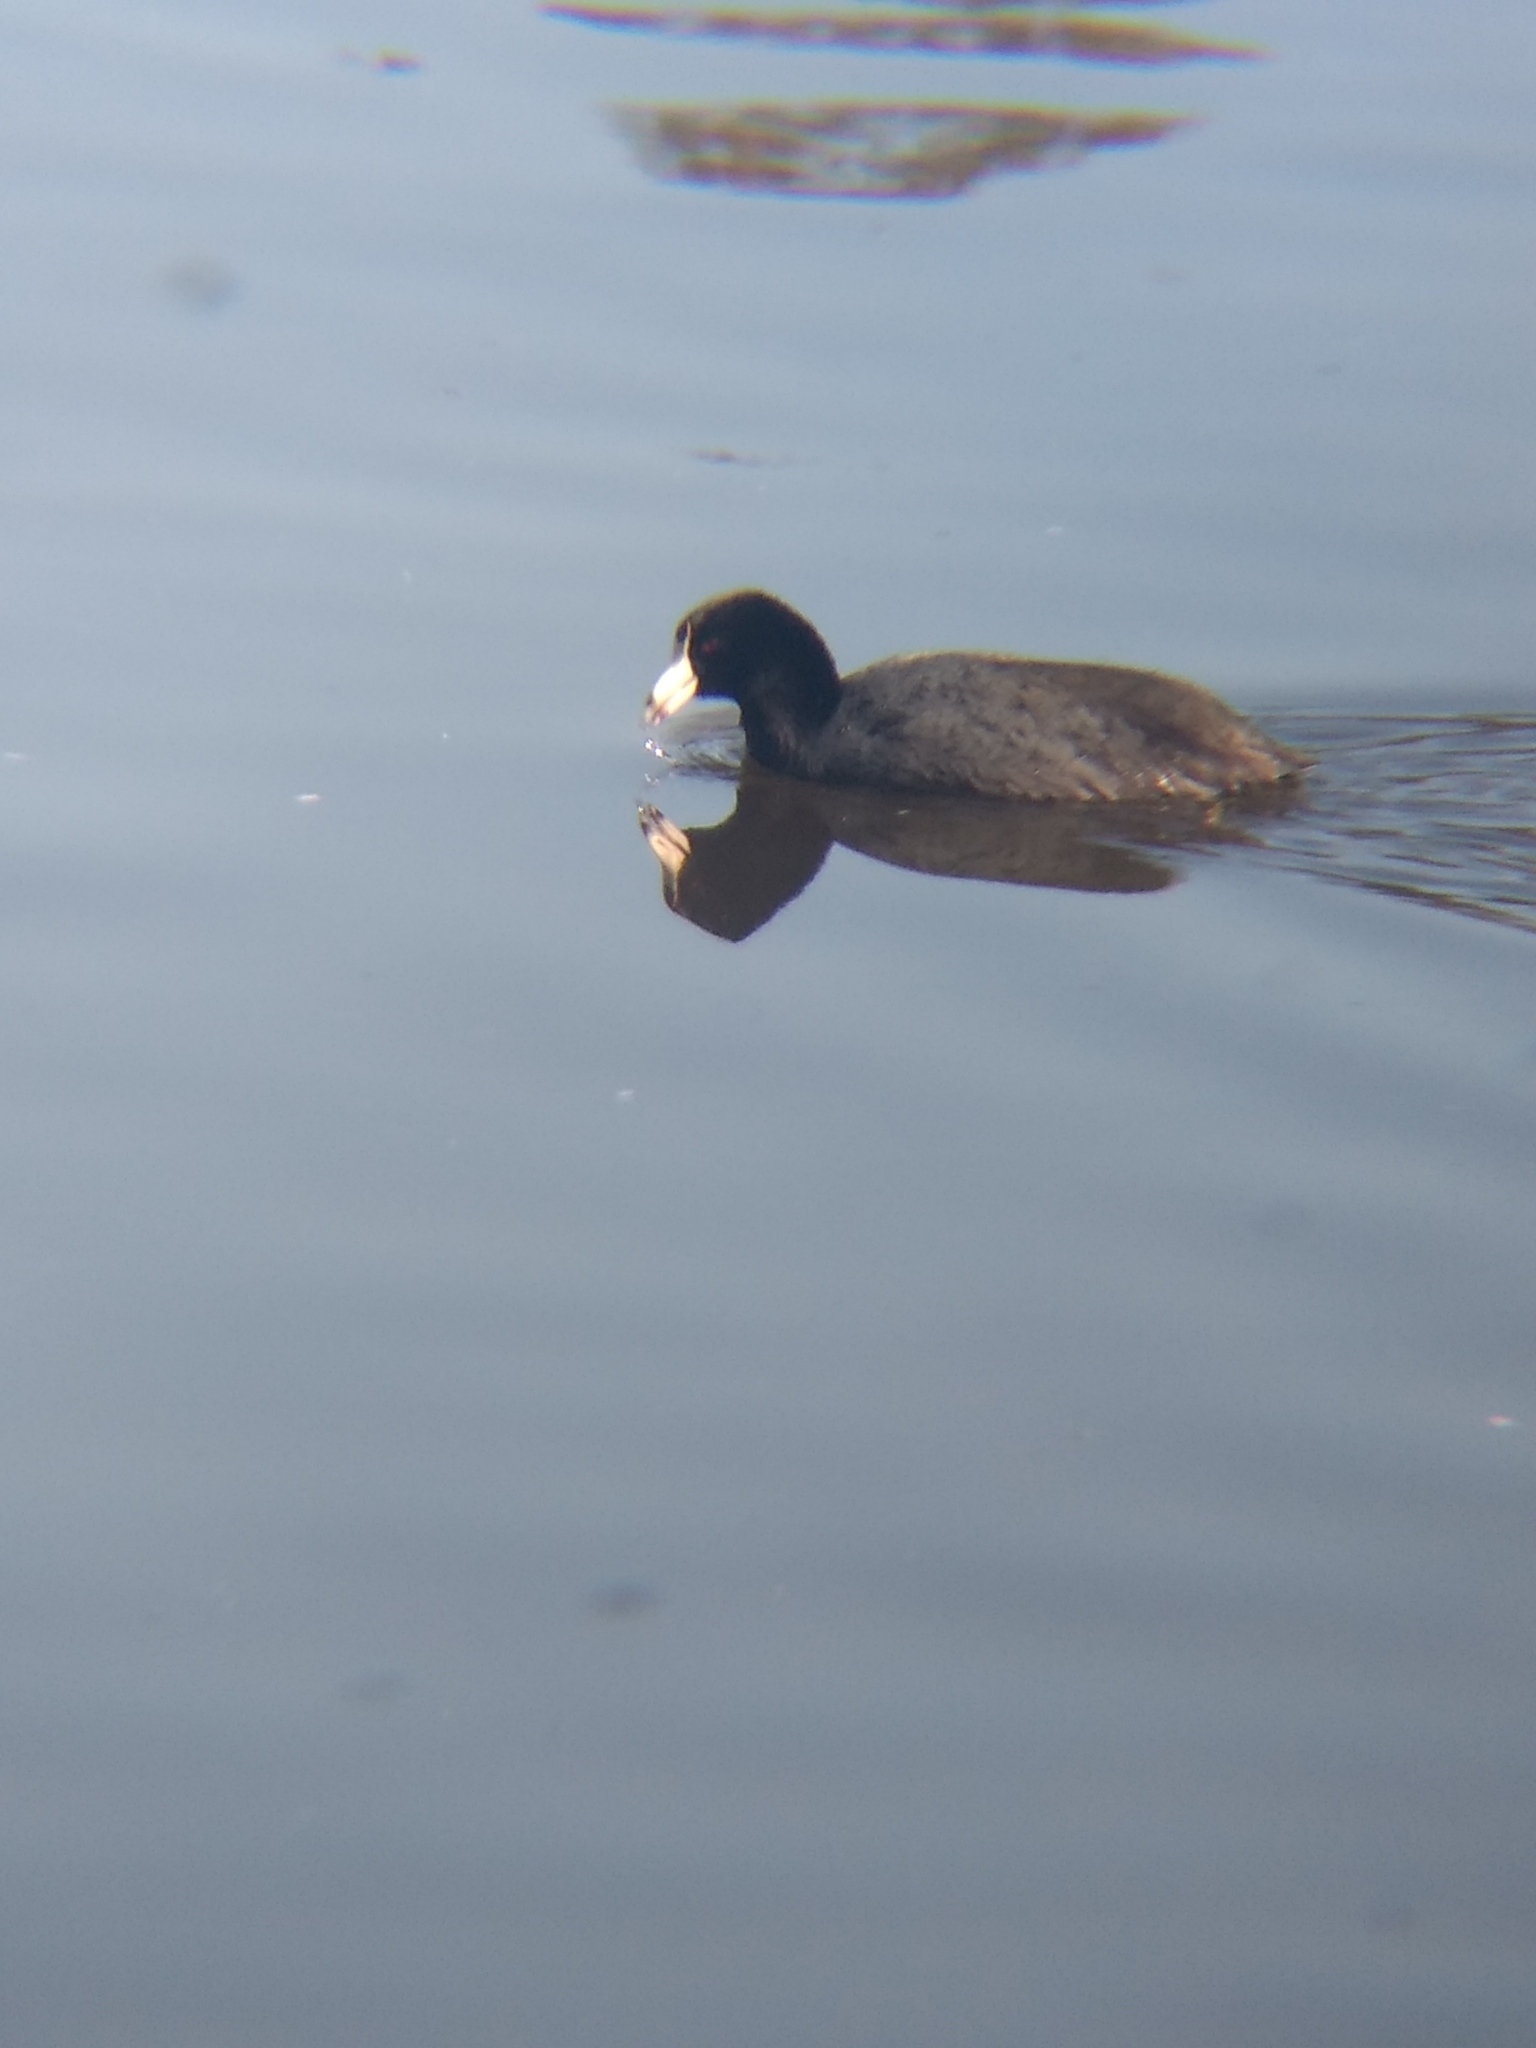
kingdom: Animalia
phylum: Chordata
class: Aves
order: Gruiformes
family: Rallidae
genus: Fulica
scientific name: Fulica americana
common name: American coot
